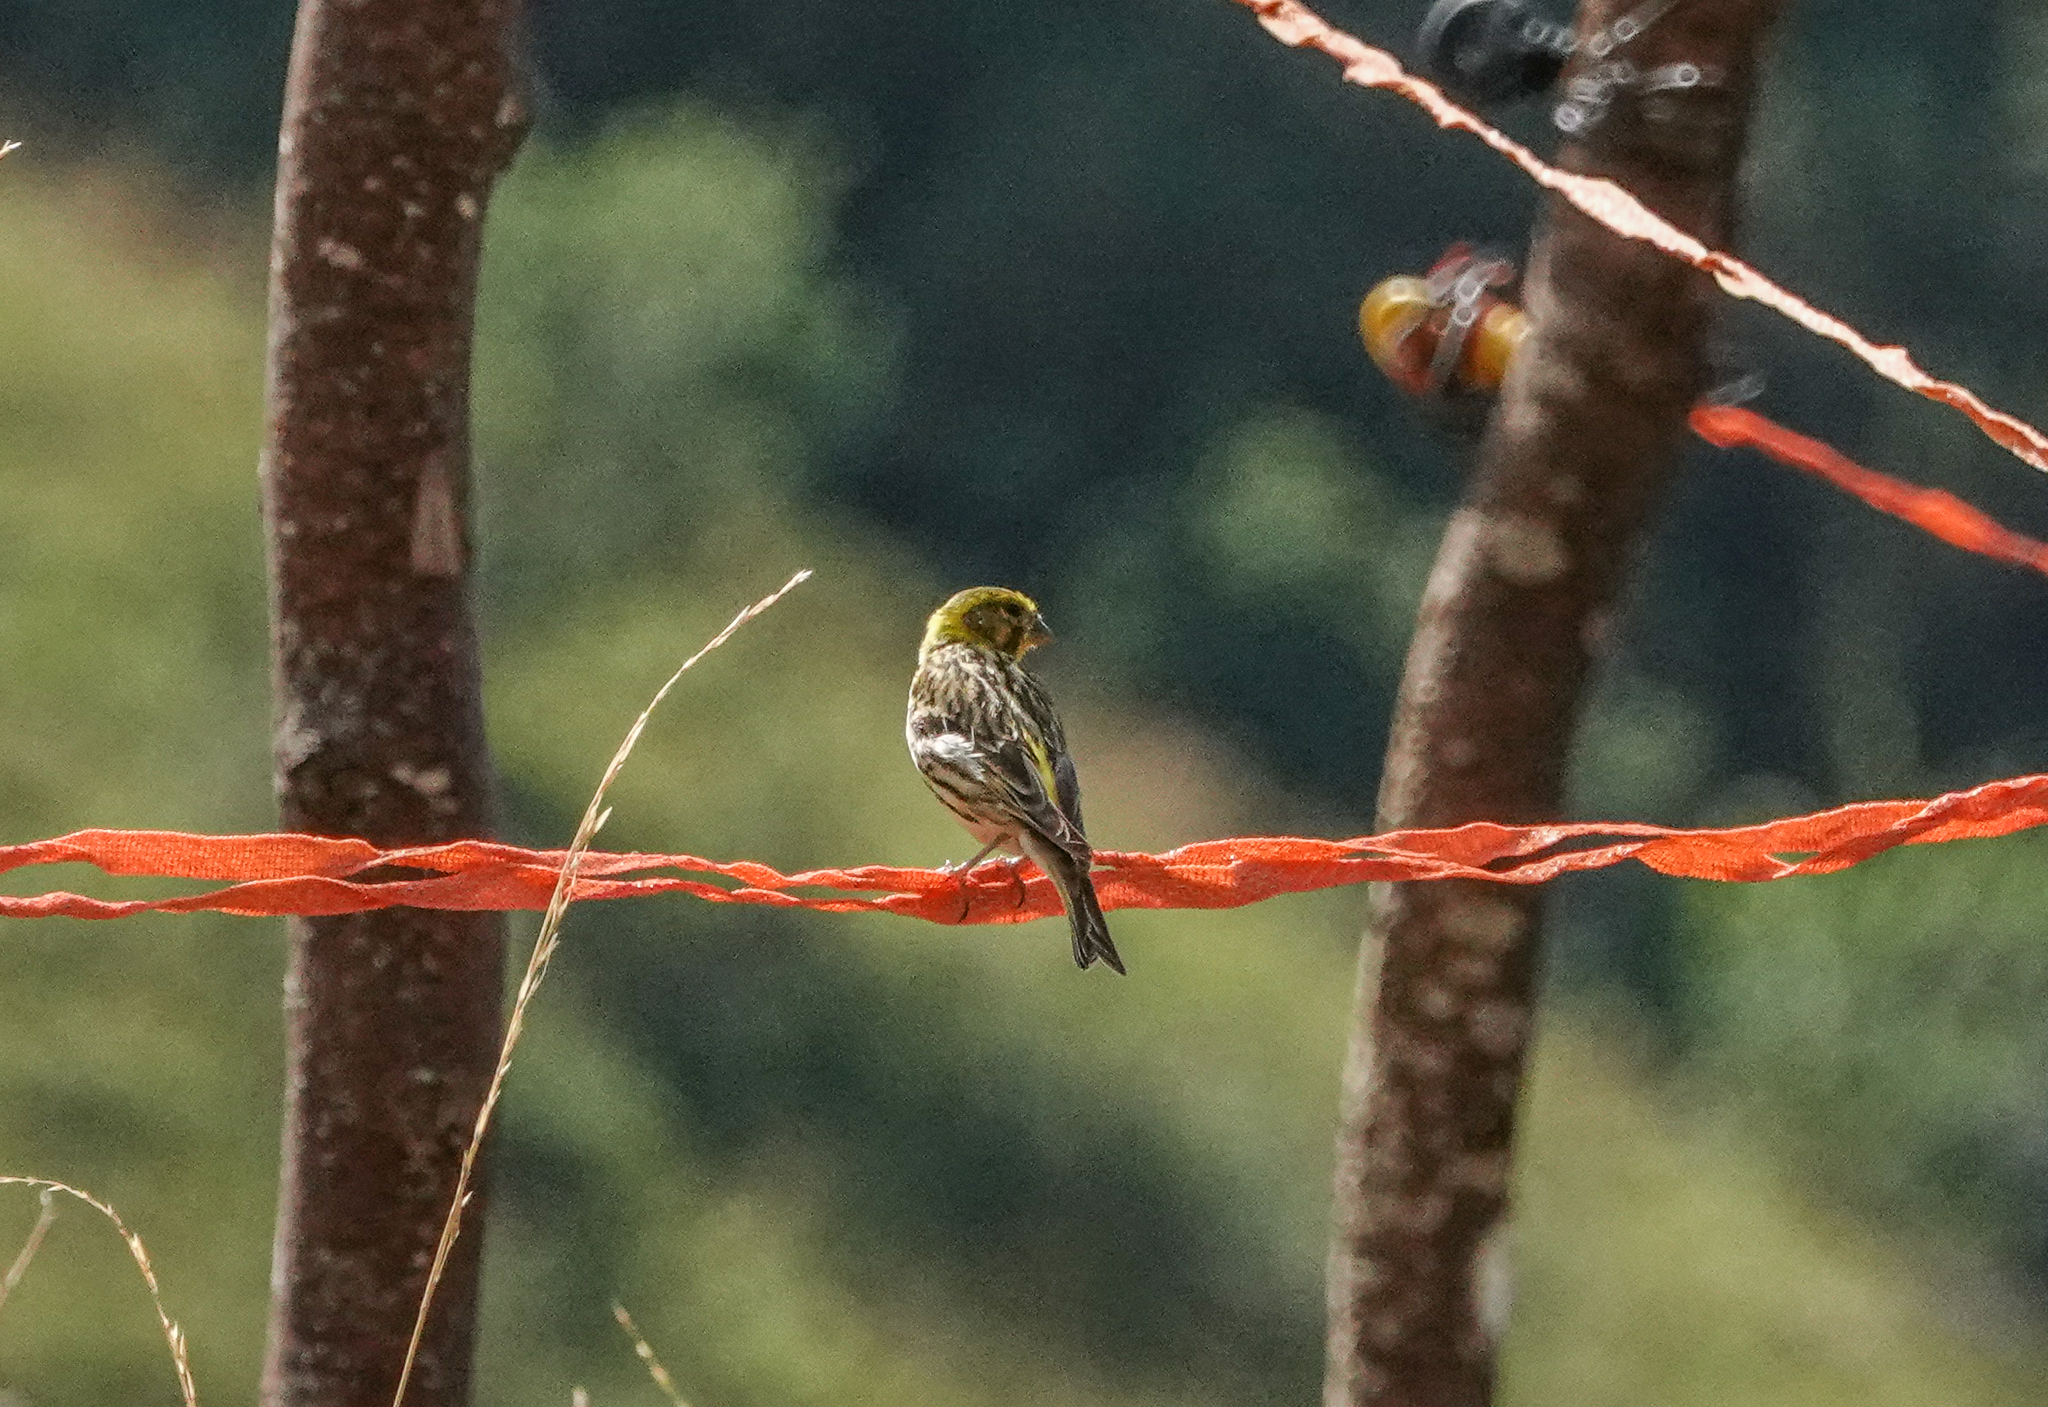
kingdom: Animalia
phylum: Chordata
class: Aves
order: Passeriformes
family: Fringillidae
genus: Serinus
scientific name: Serinus serinus
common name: European serin
